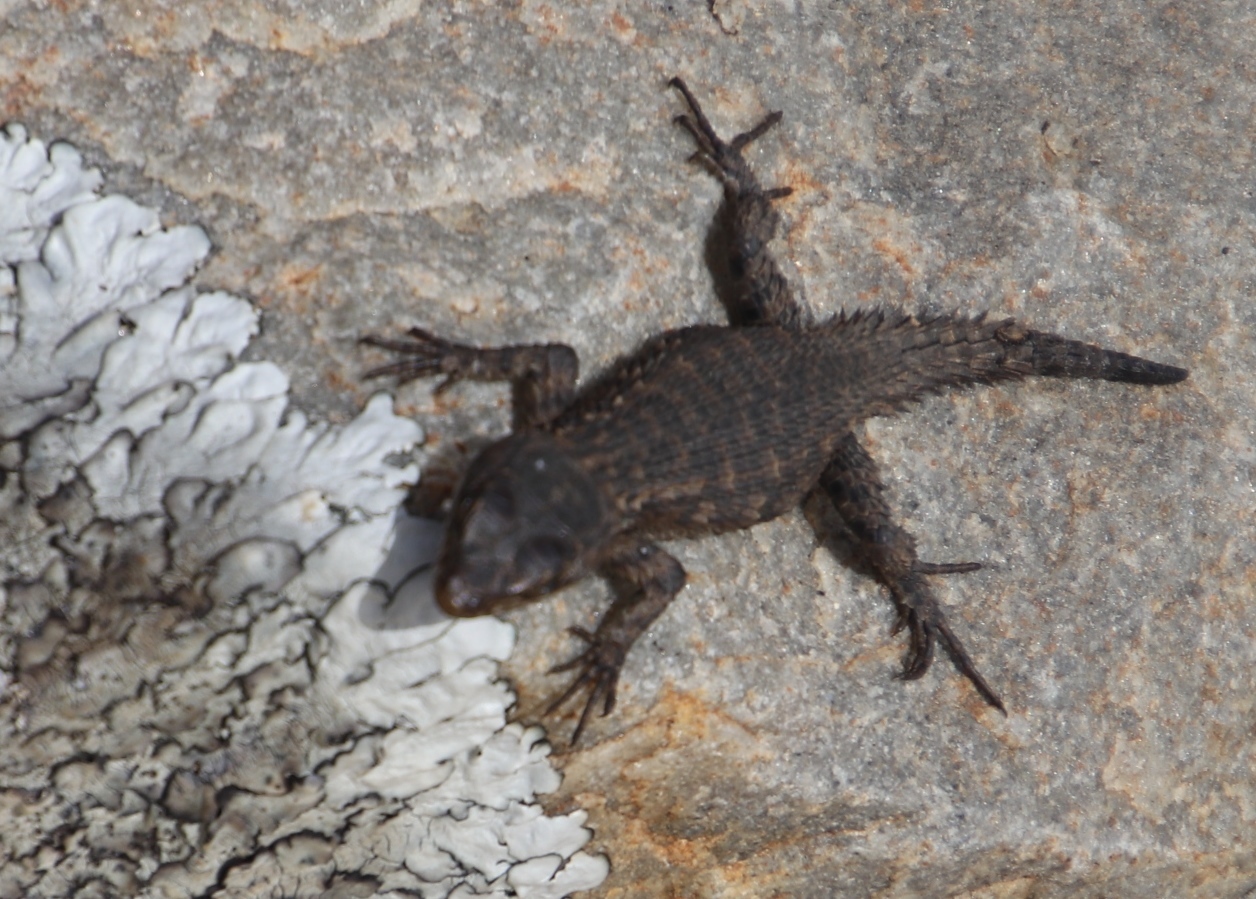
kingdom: Animalia
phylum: Chordata
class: Squamata
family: Cordylidae
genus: Cordylus
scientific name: Cordylus niger
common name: Black girdled lizard
